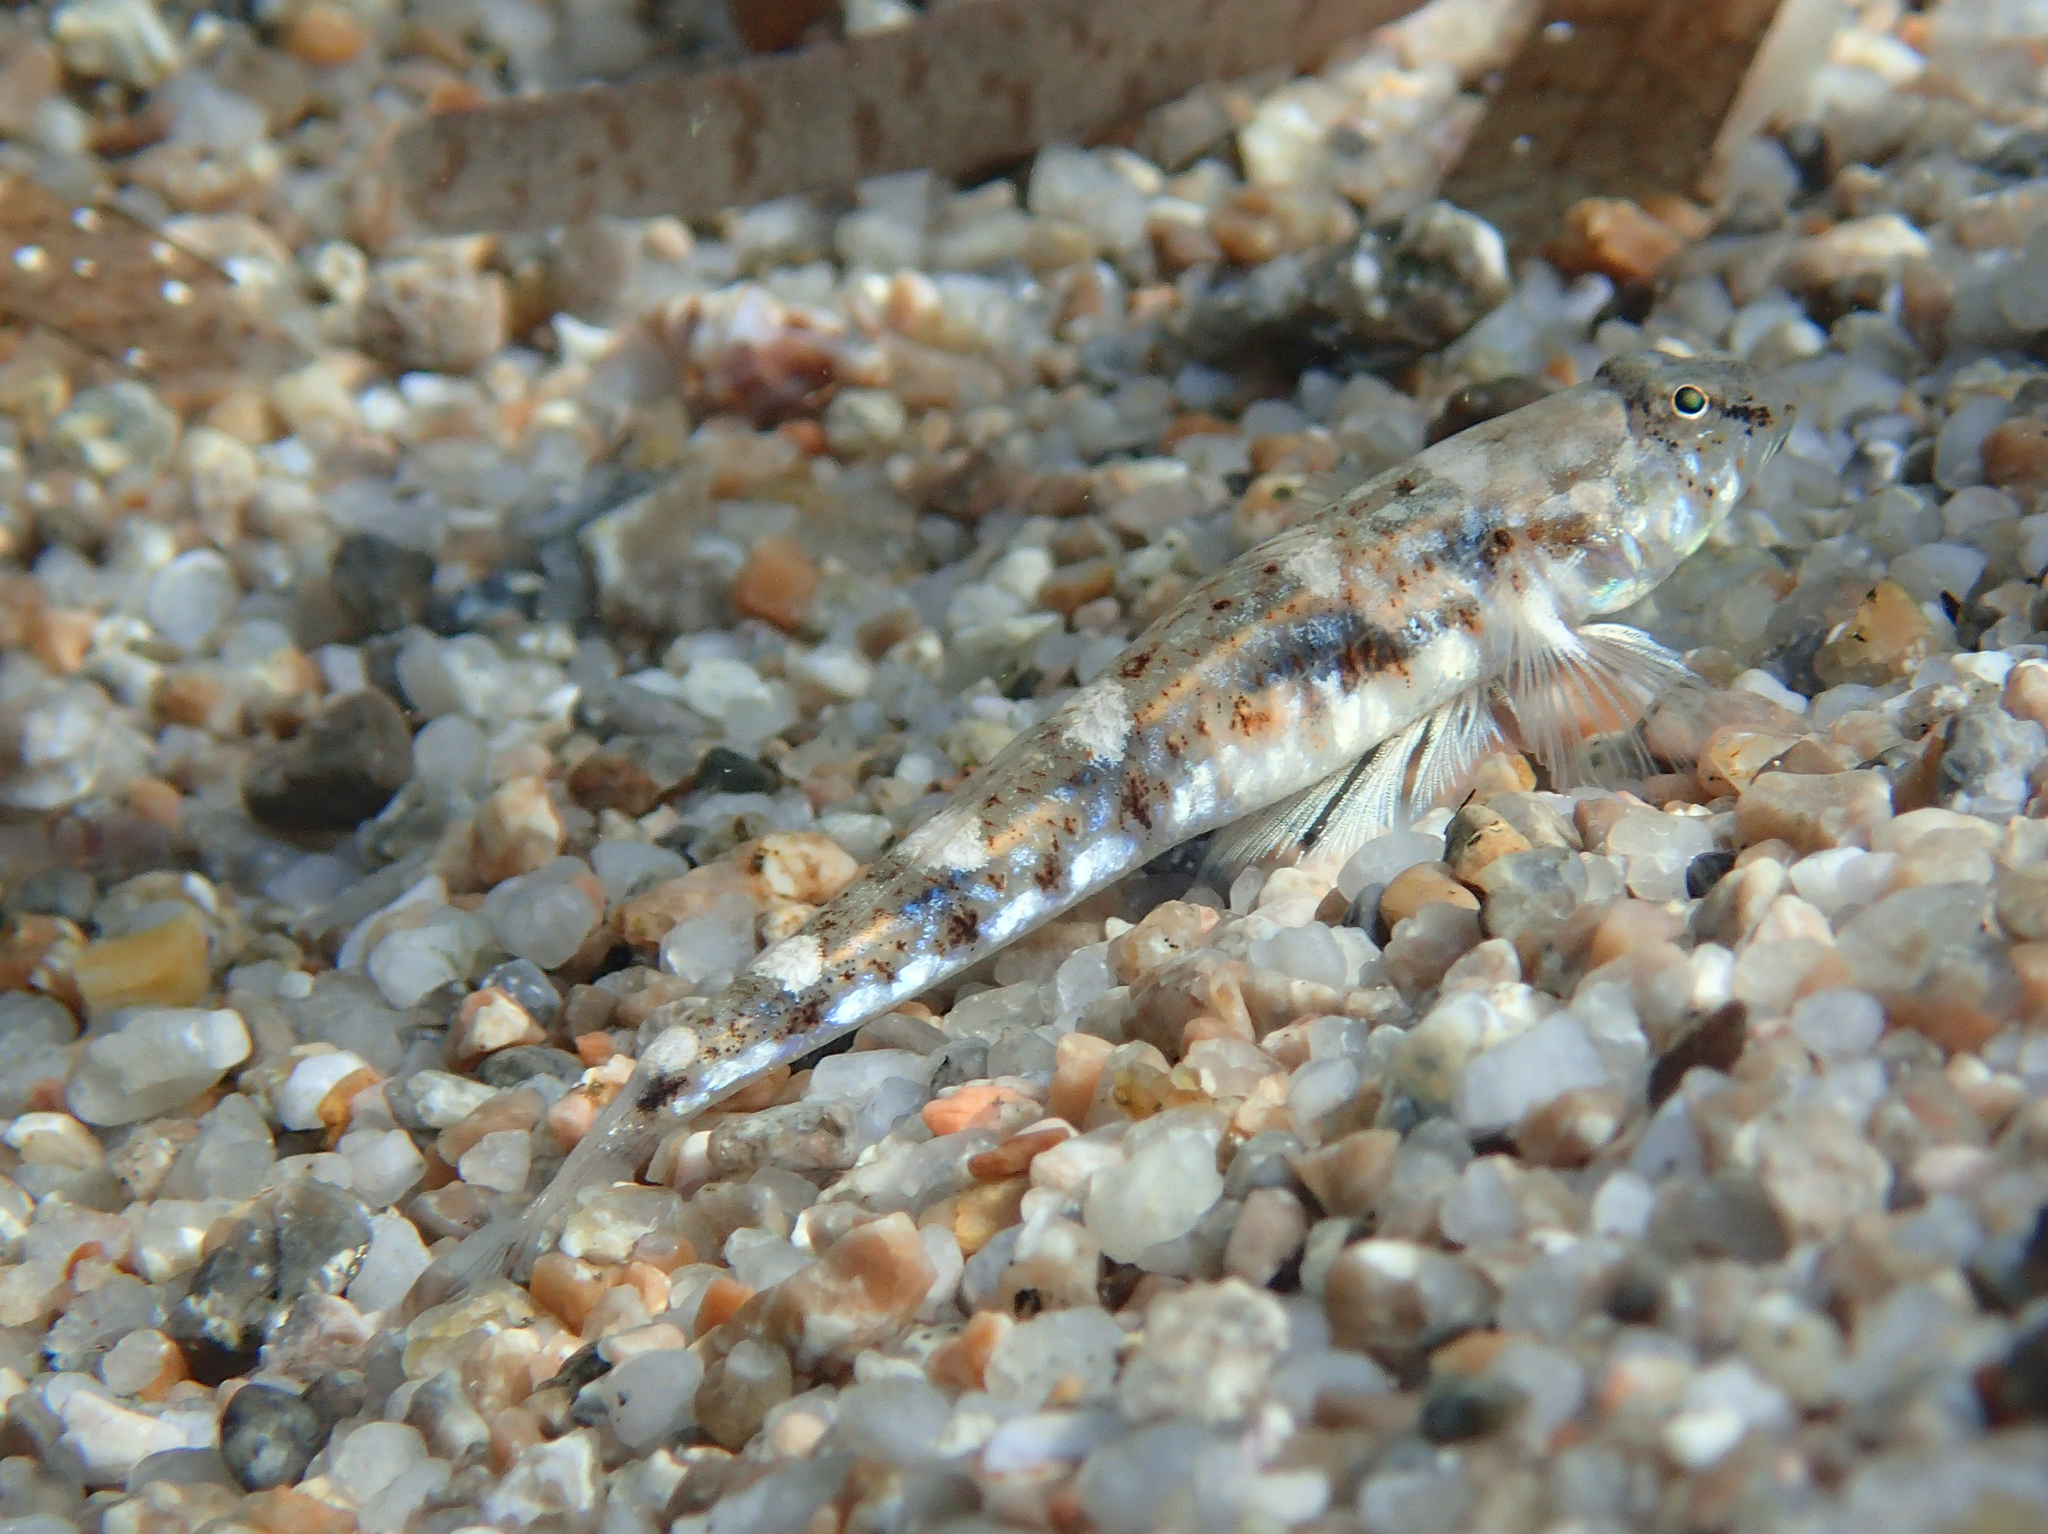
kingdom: Animalia
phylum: Chordata
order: Perciformes
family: Gobiidae
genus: Pomatoschistus
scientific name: Pomatoschistus marmoratus
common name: Marbled goby
